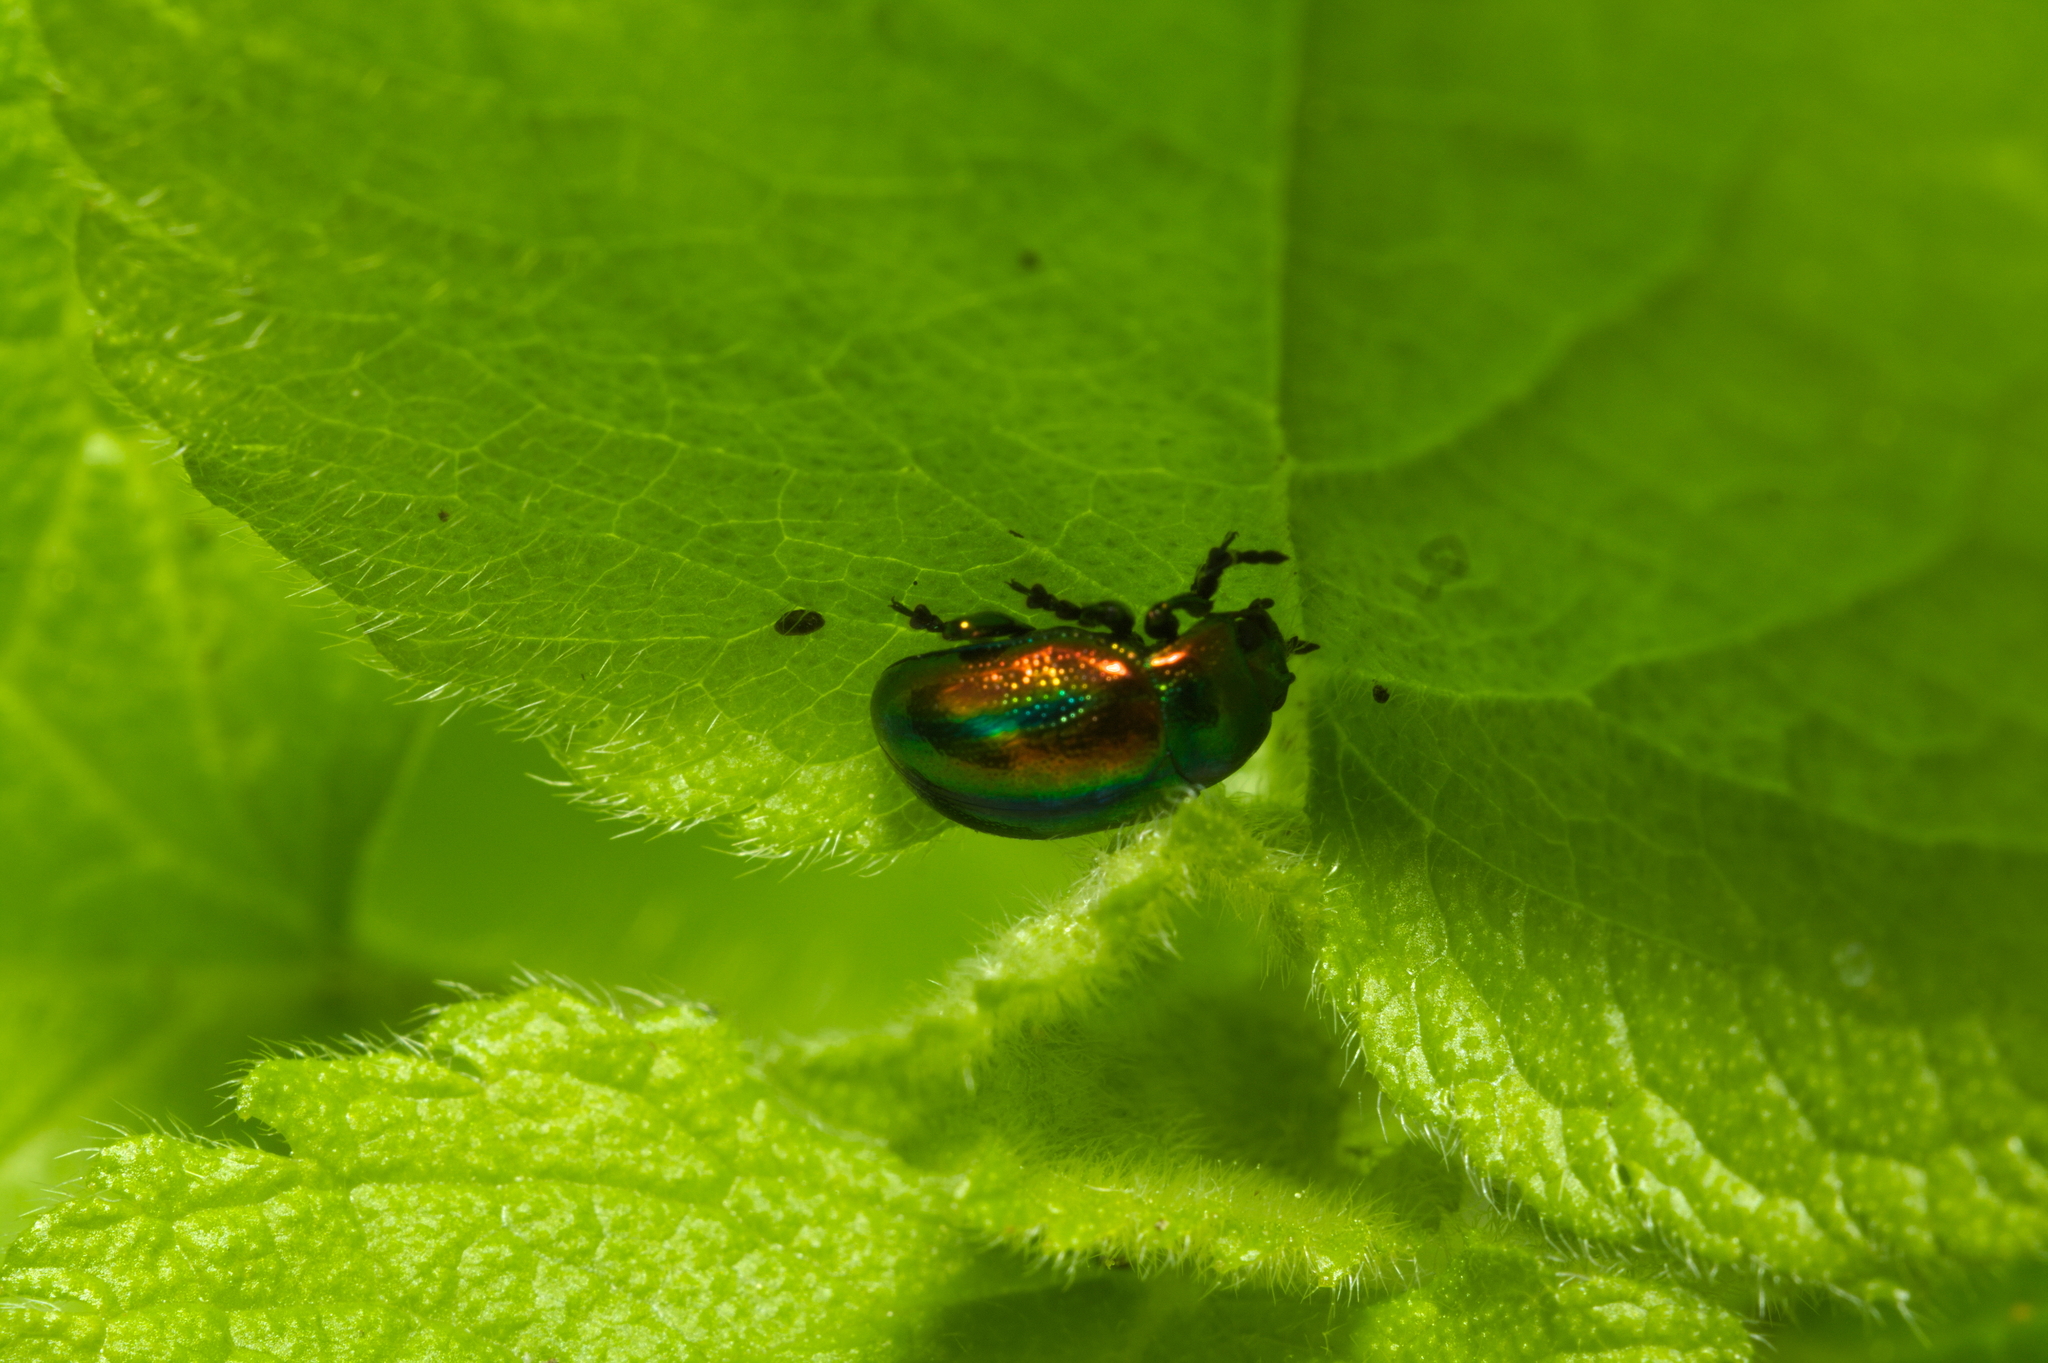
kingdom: Animalia
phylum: Arthropoda
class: Insecta
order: Coleoptera
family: Chrysomelidae
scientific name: Chrysomelidae
